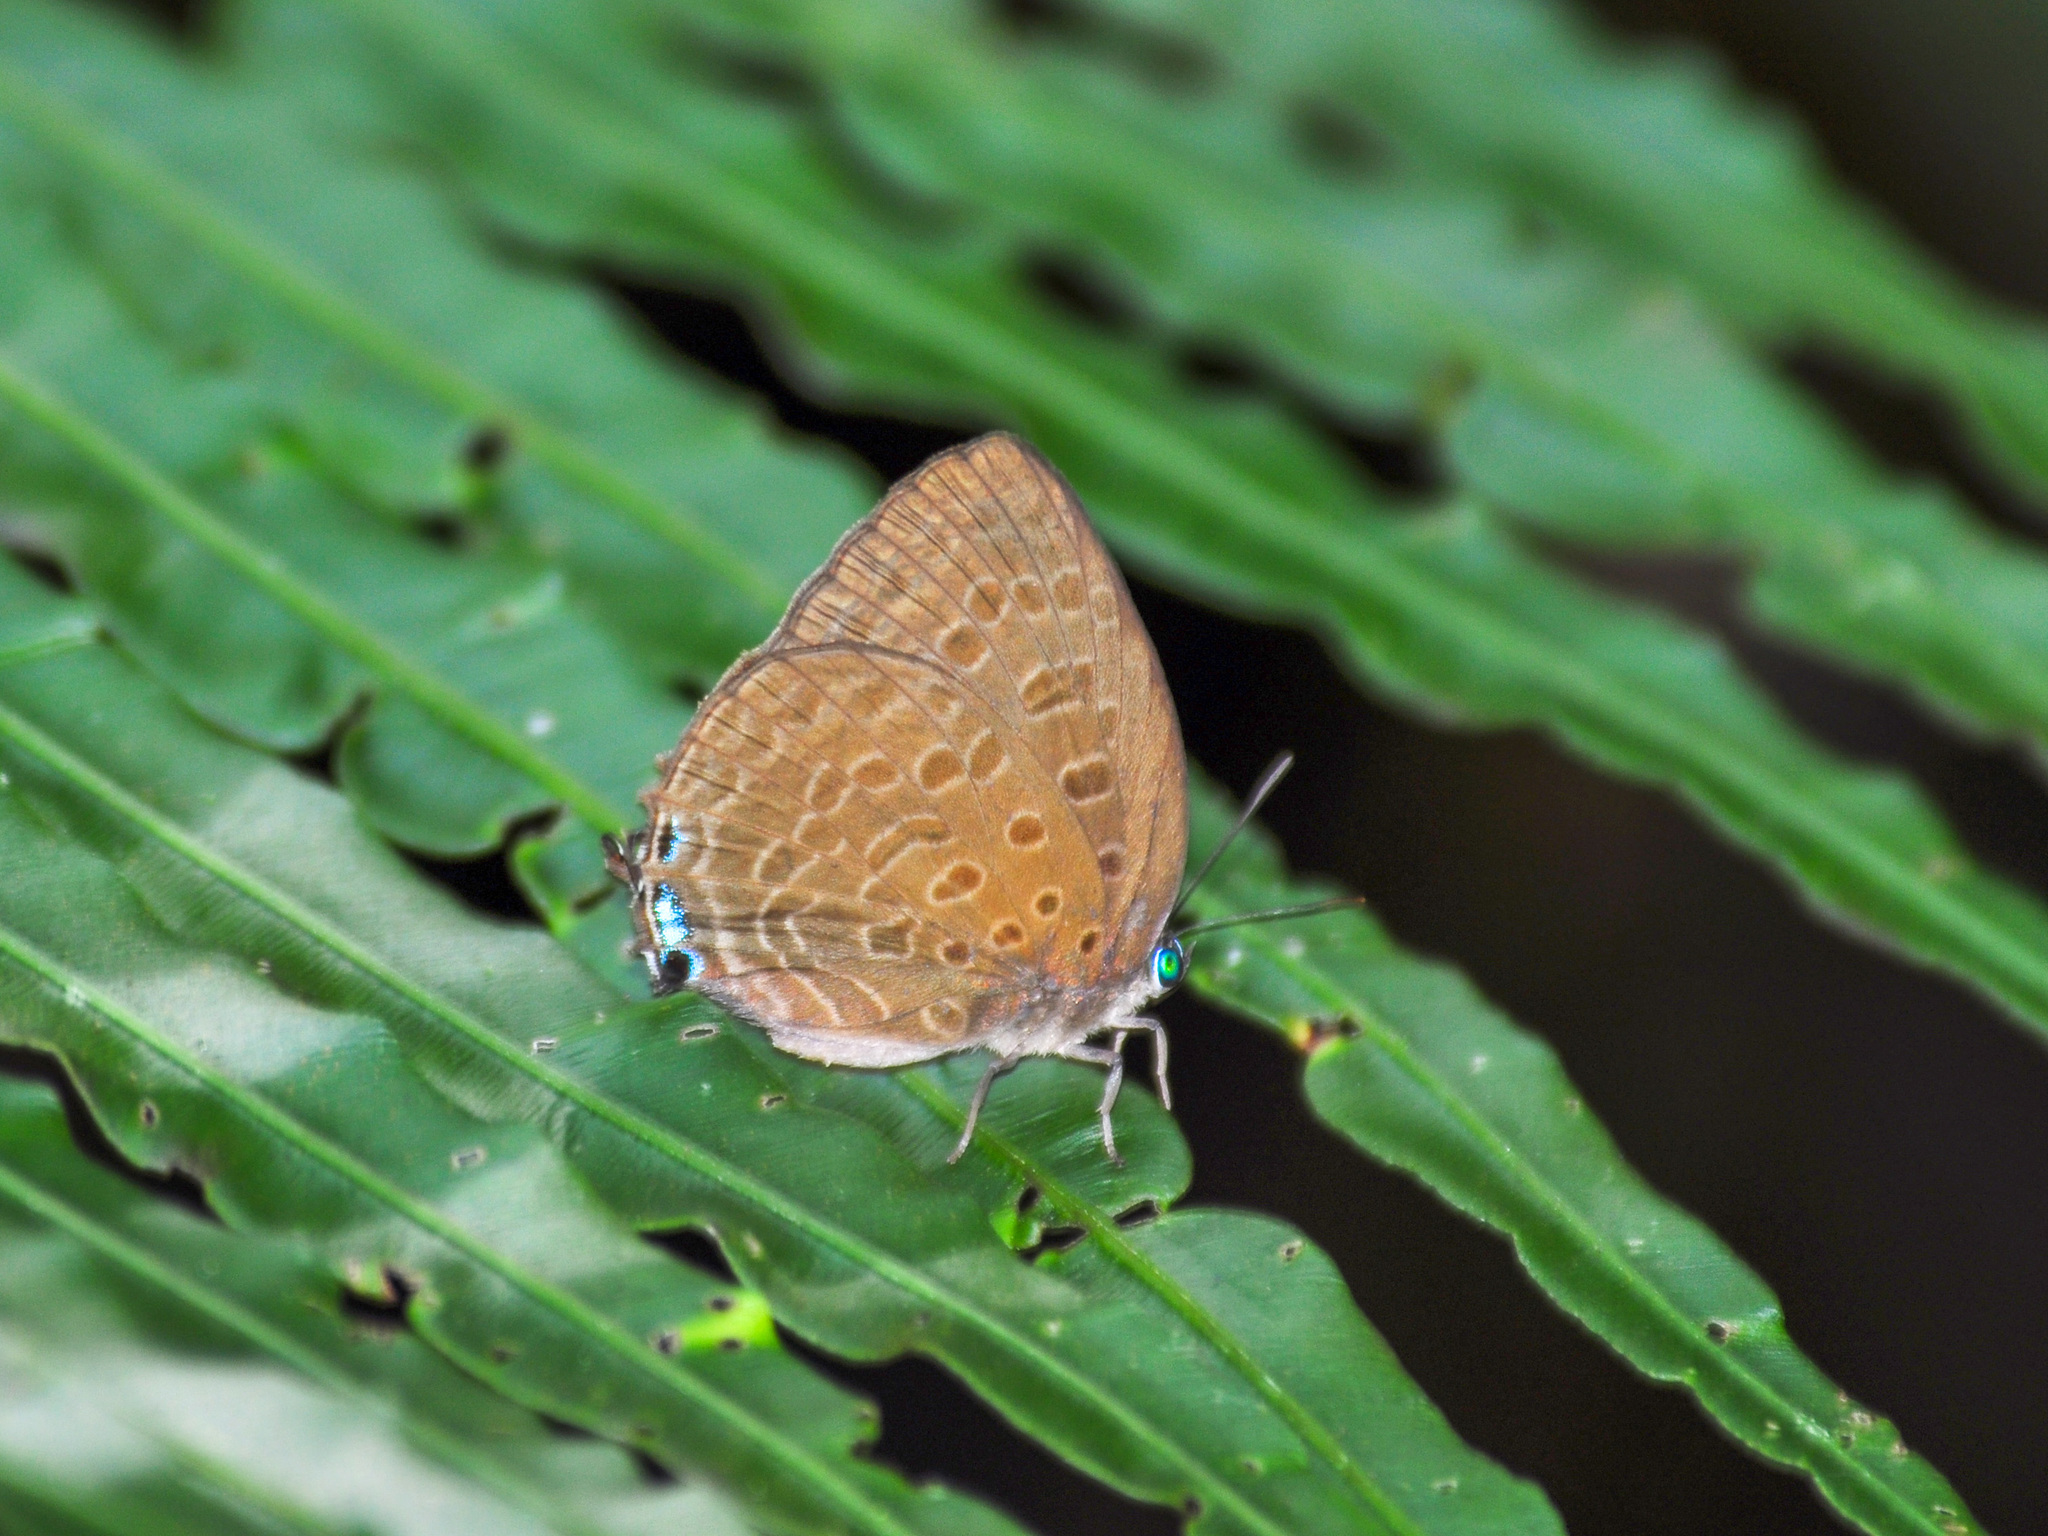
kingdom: Animalia
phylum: Arthropoda
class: Insecta
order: Lepidoptera
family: Lycaenidae
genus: Arhopala
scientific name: Arhopala aedias
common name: Large metallic oakblue
